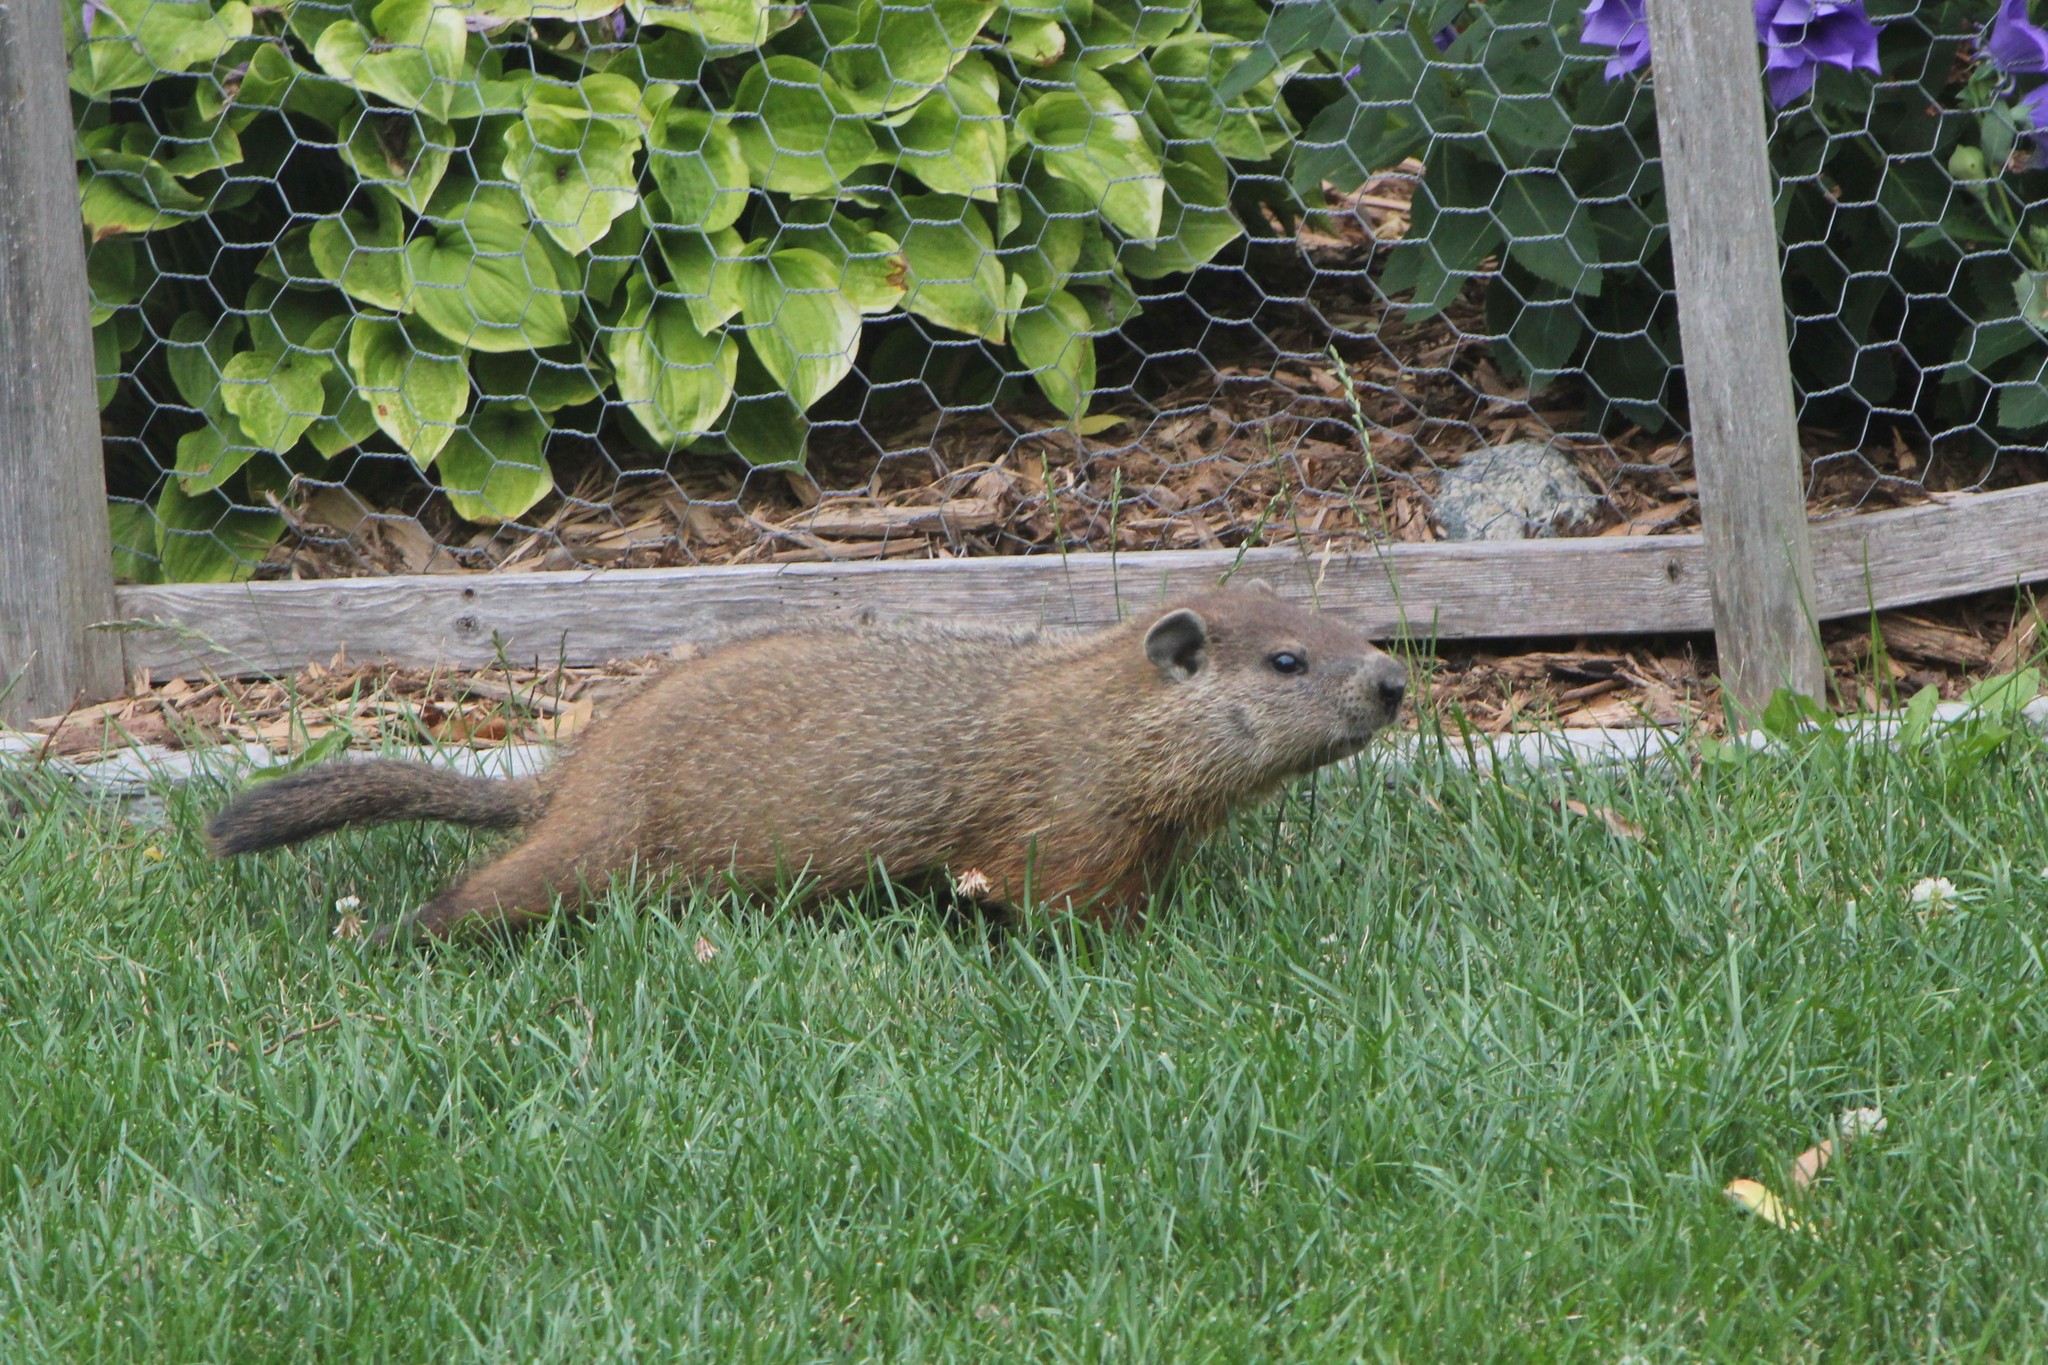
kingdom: Animalia
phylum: Chordata
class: Mammalia
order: Rodentia
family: Sciuridae
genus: Marmota
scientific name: Marmota monax
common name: Groundhog
